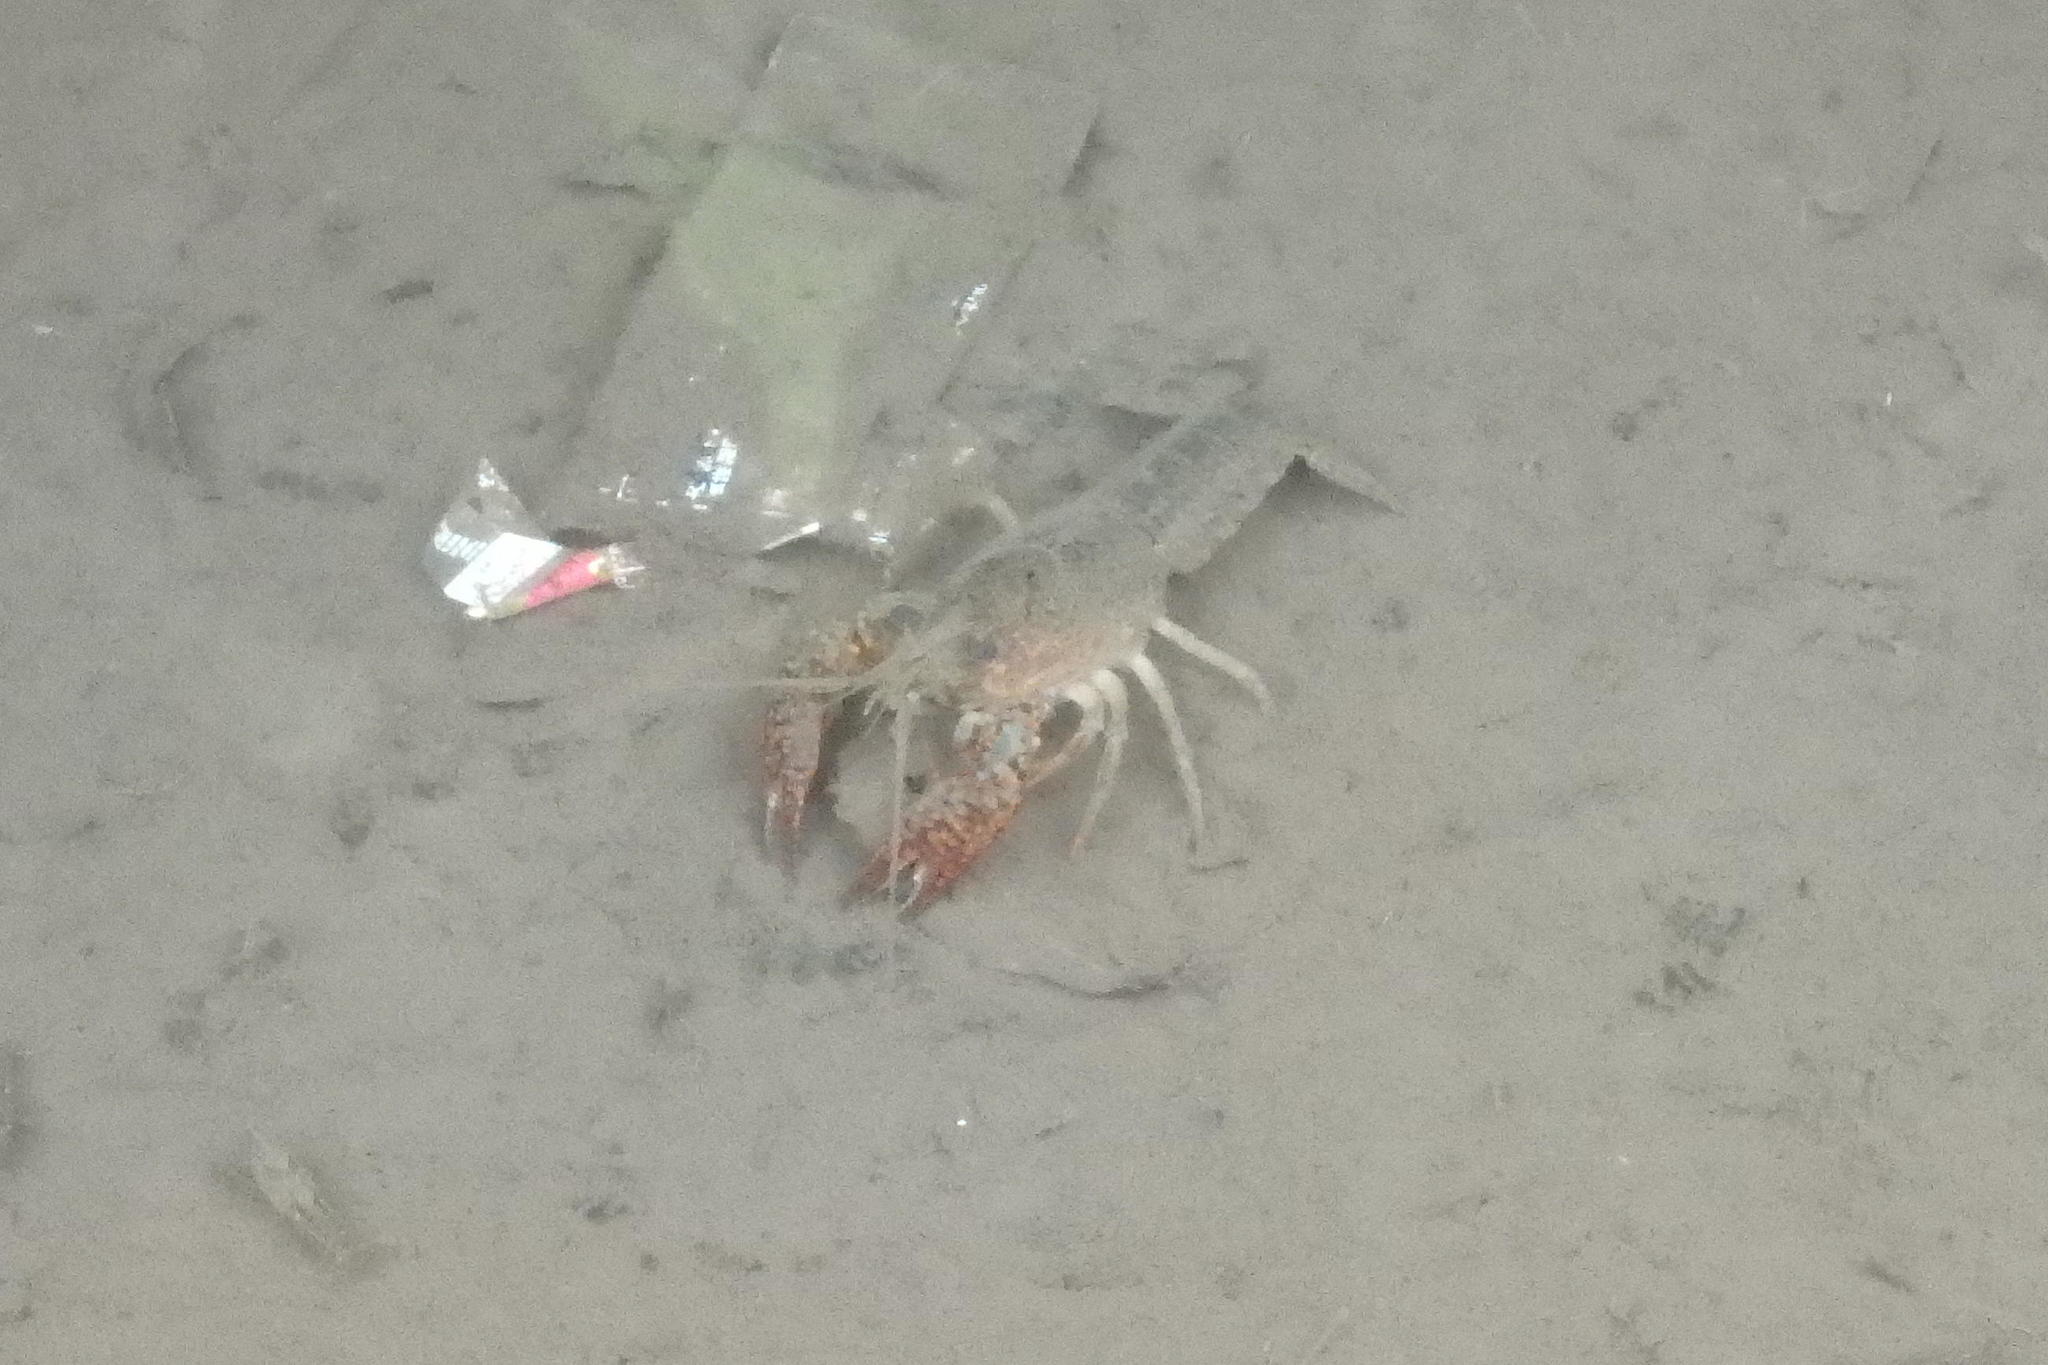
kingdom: Animalia
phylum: Arthropoda
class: Malacostraca
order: Decapoda
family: Cambaridae
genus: Procambarus
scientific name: Procambarus clarkii
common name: Red swamp crayfish
